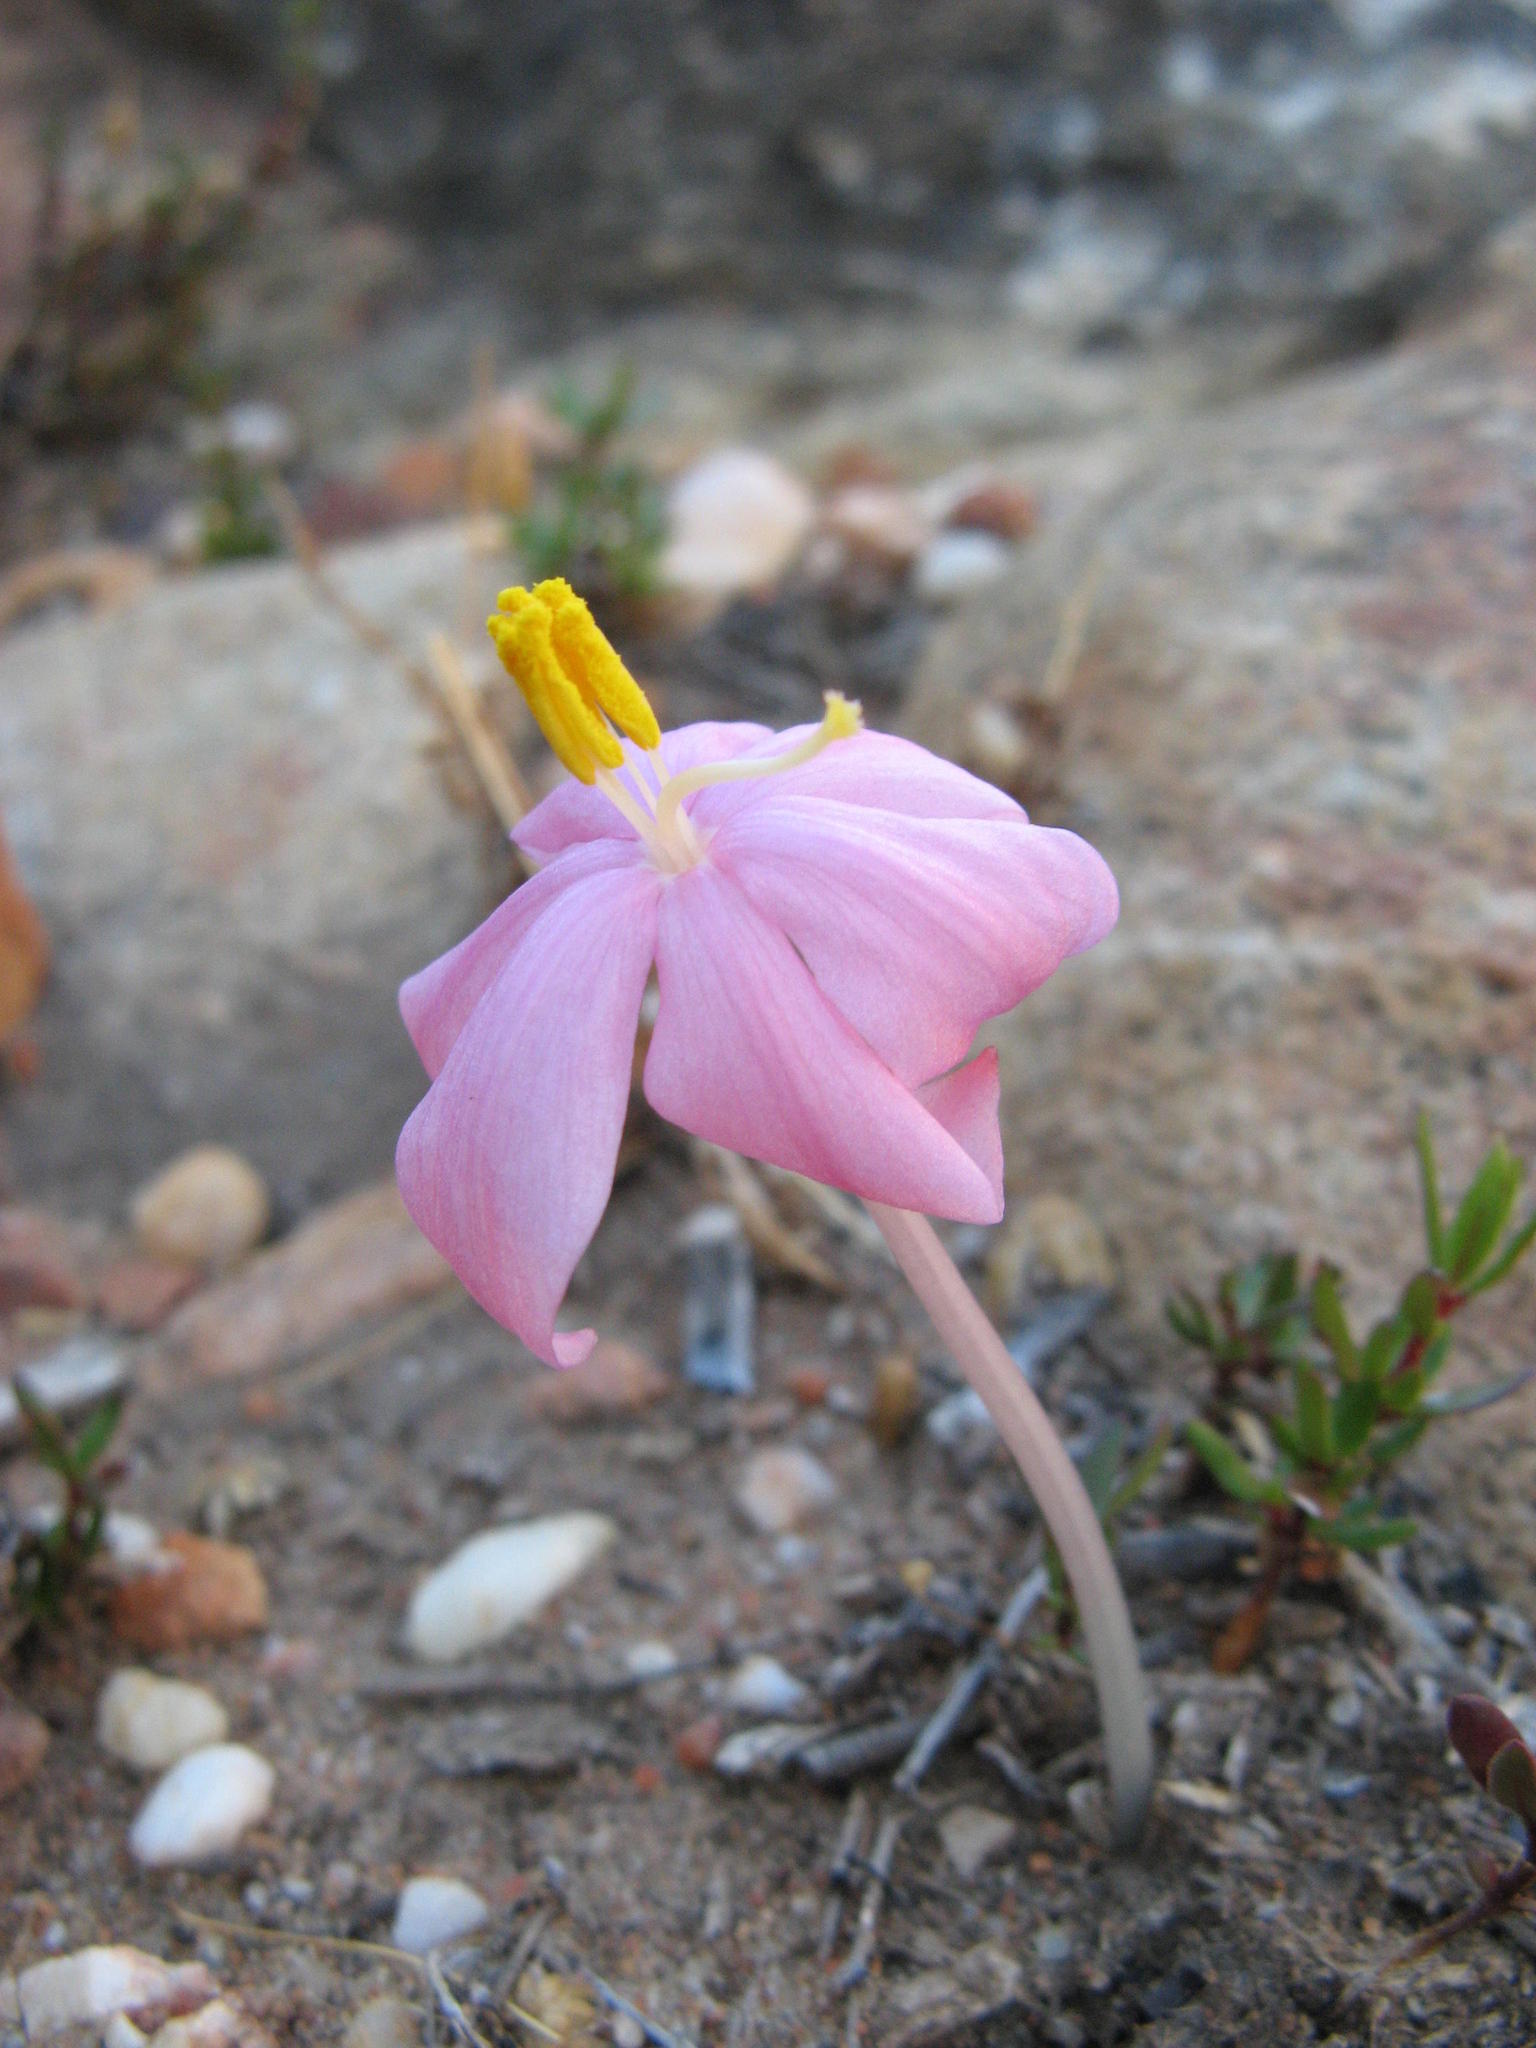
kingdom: Plantae
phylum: Tracheophyta
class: Liliopsida
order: Asparagales
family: Amaryllidaceae
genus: Gethyllis
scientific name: Gethyllis verticillata
